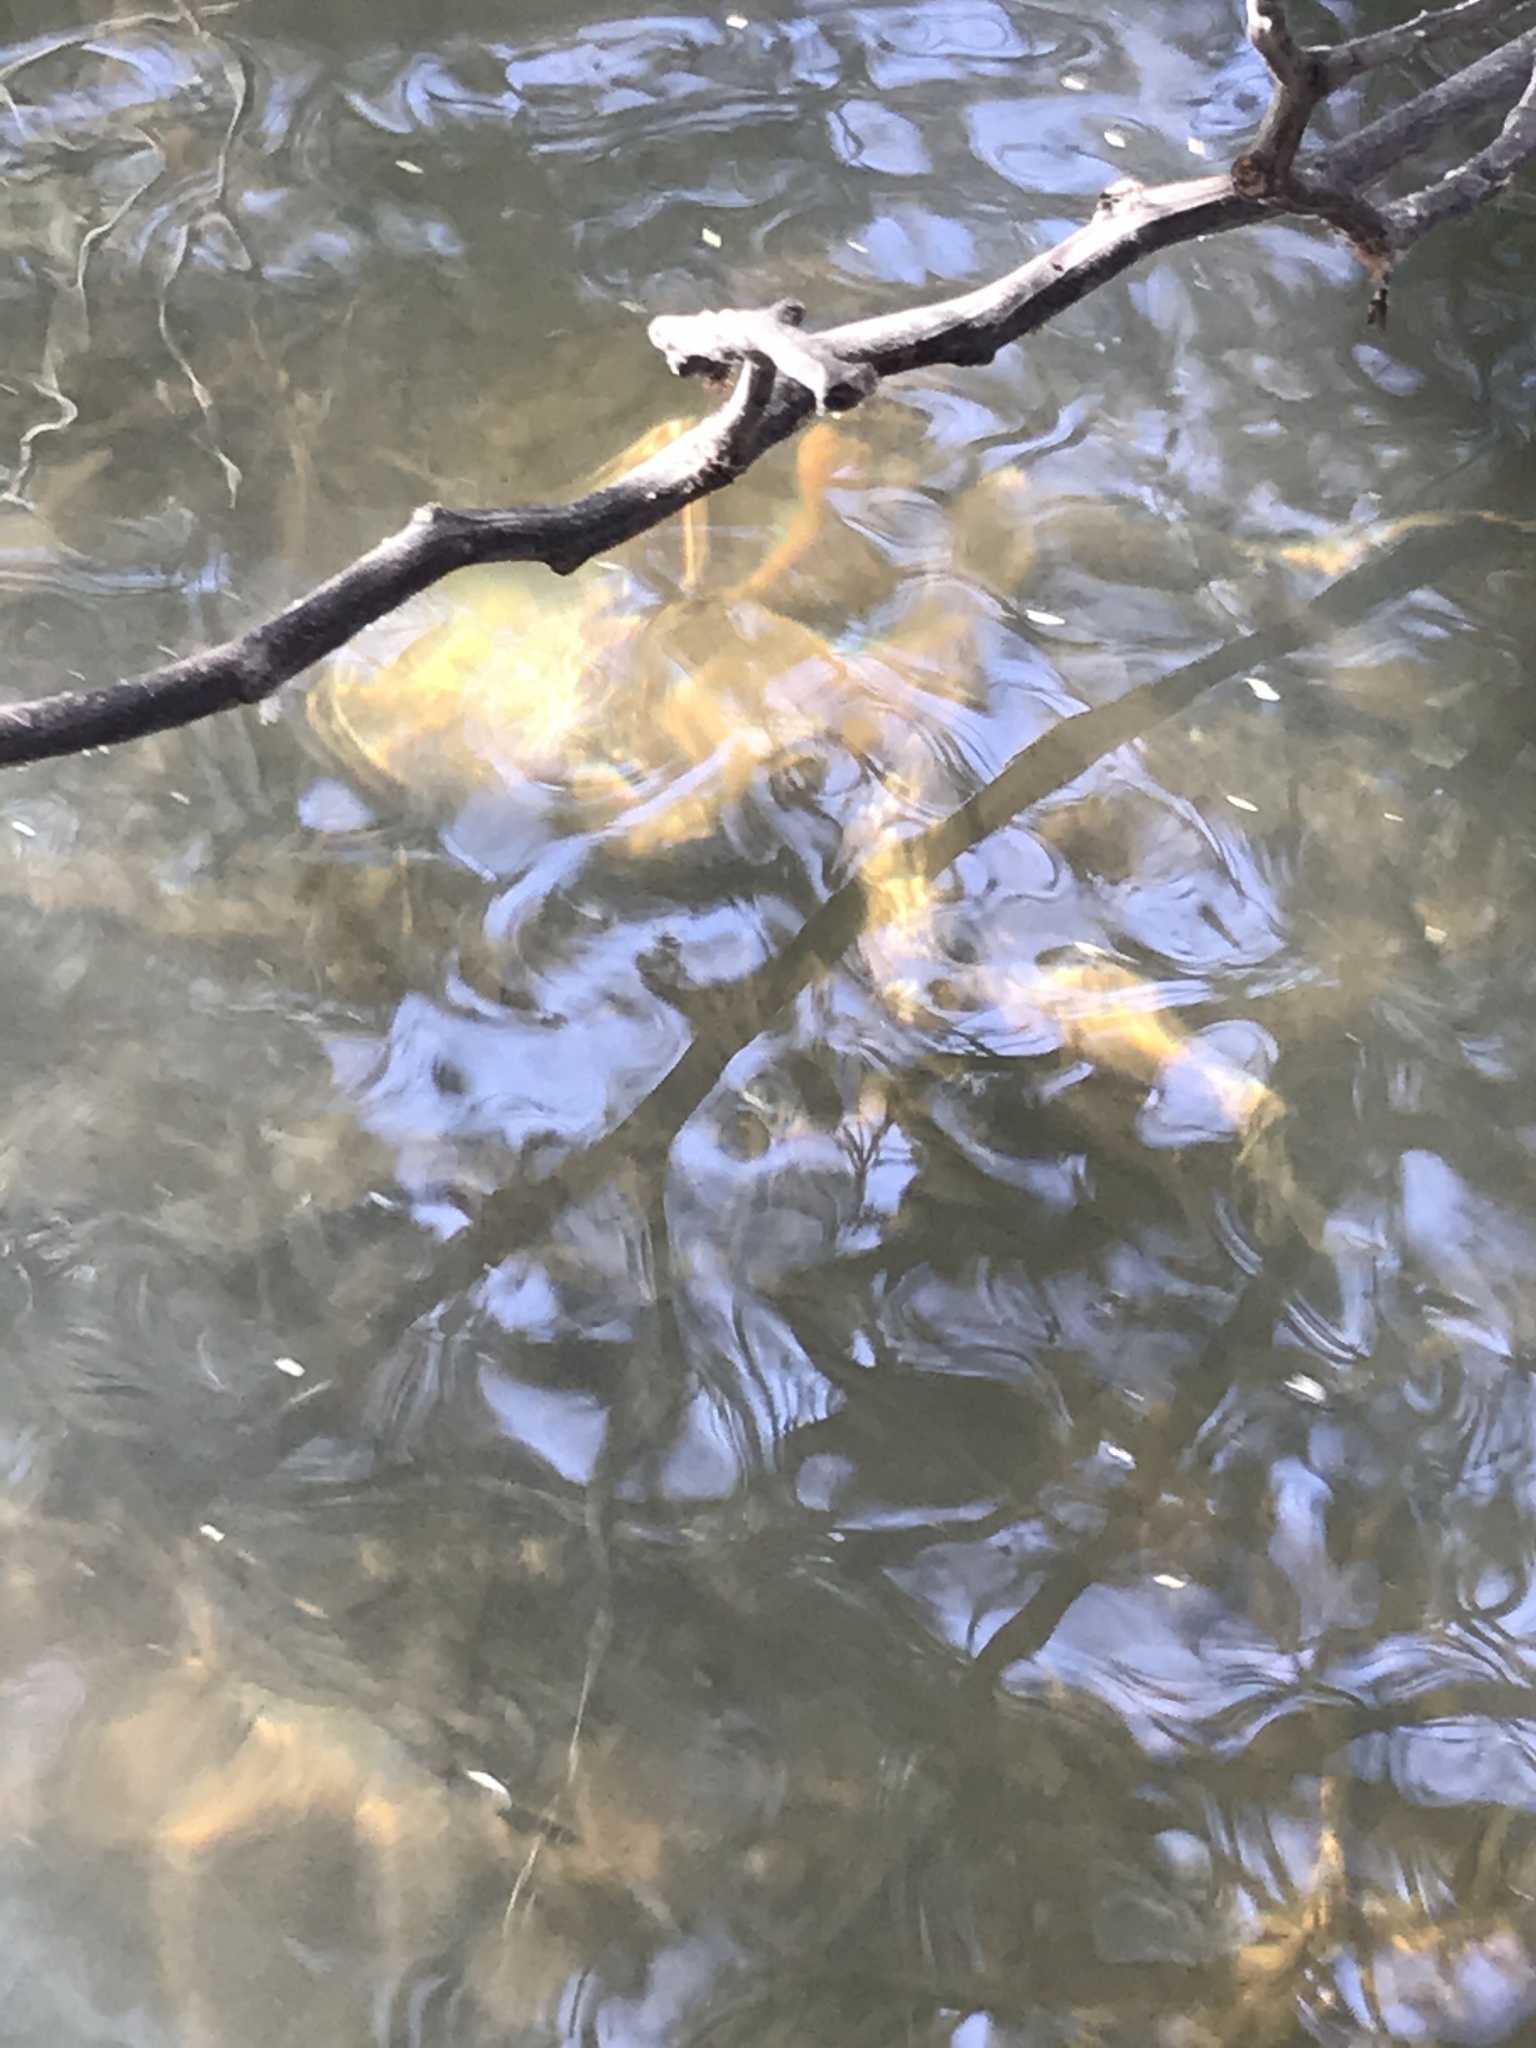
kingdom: Animalia
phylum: Chordata
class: Amphibia
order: Anura
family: Ranidae
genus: Lithobates
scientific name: Lithobates catesbeianus
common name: American bullfrog
